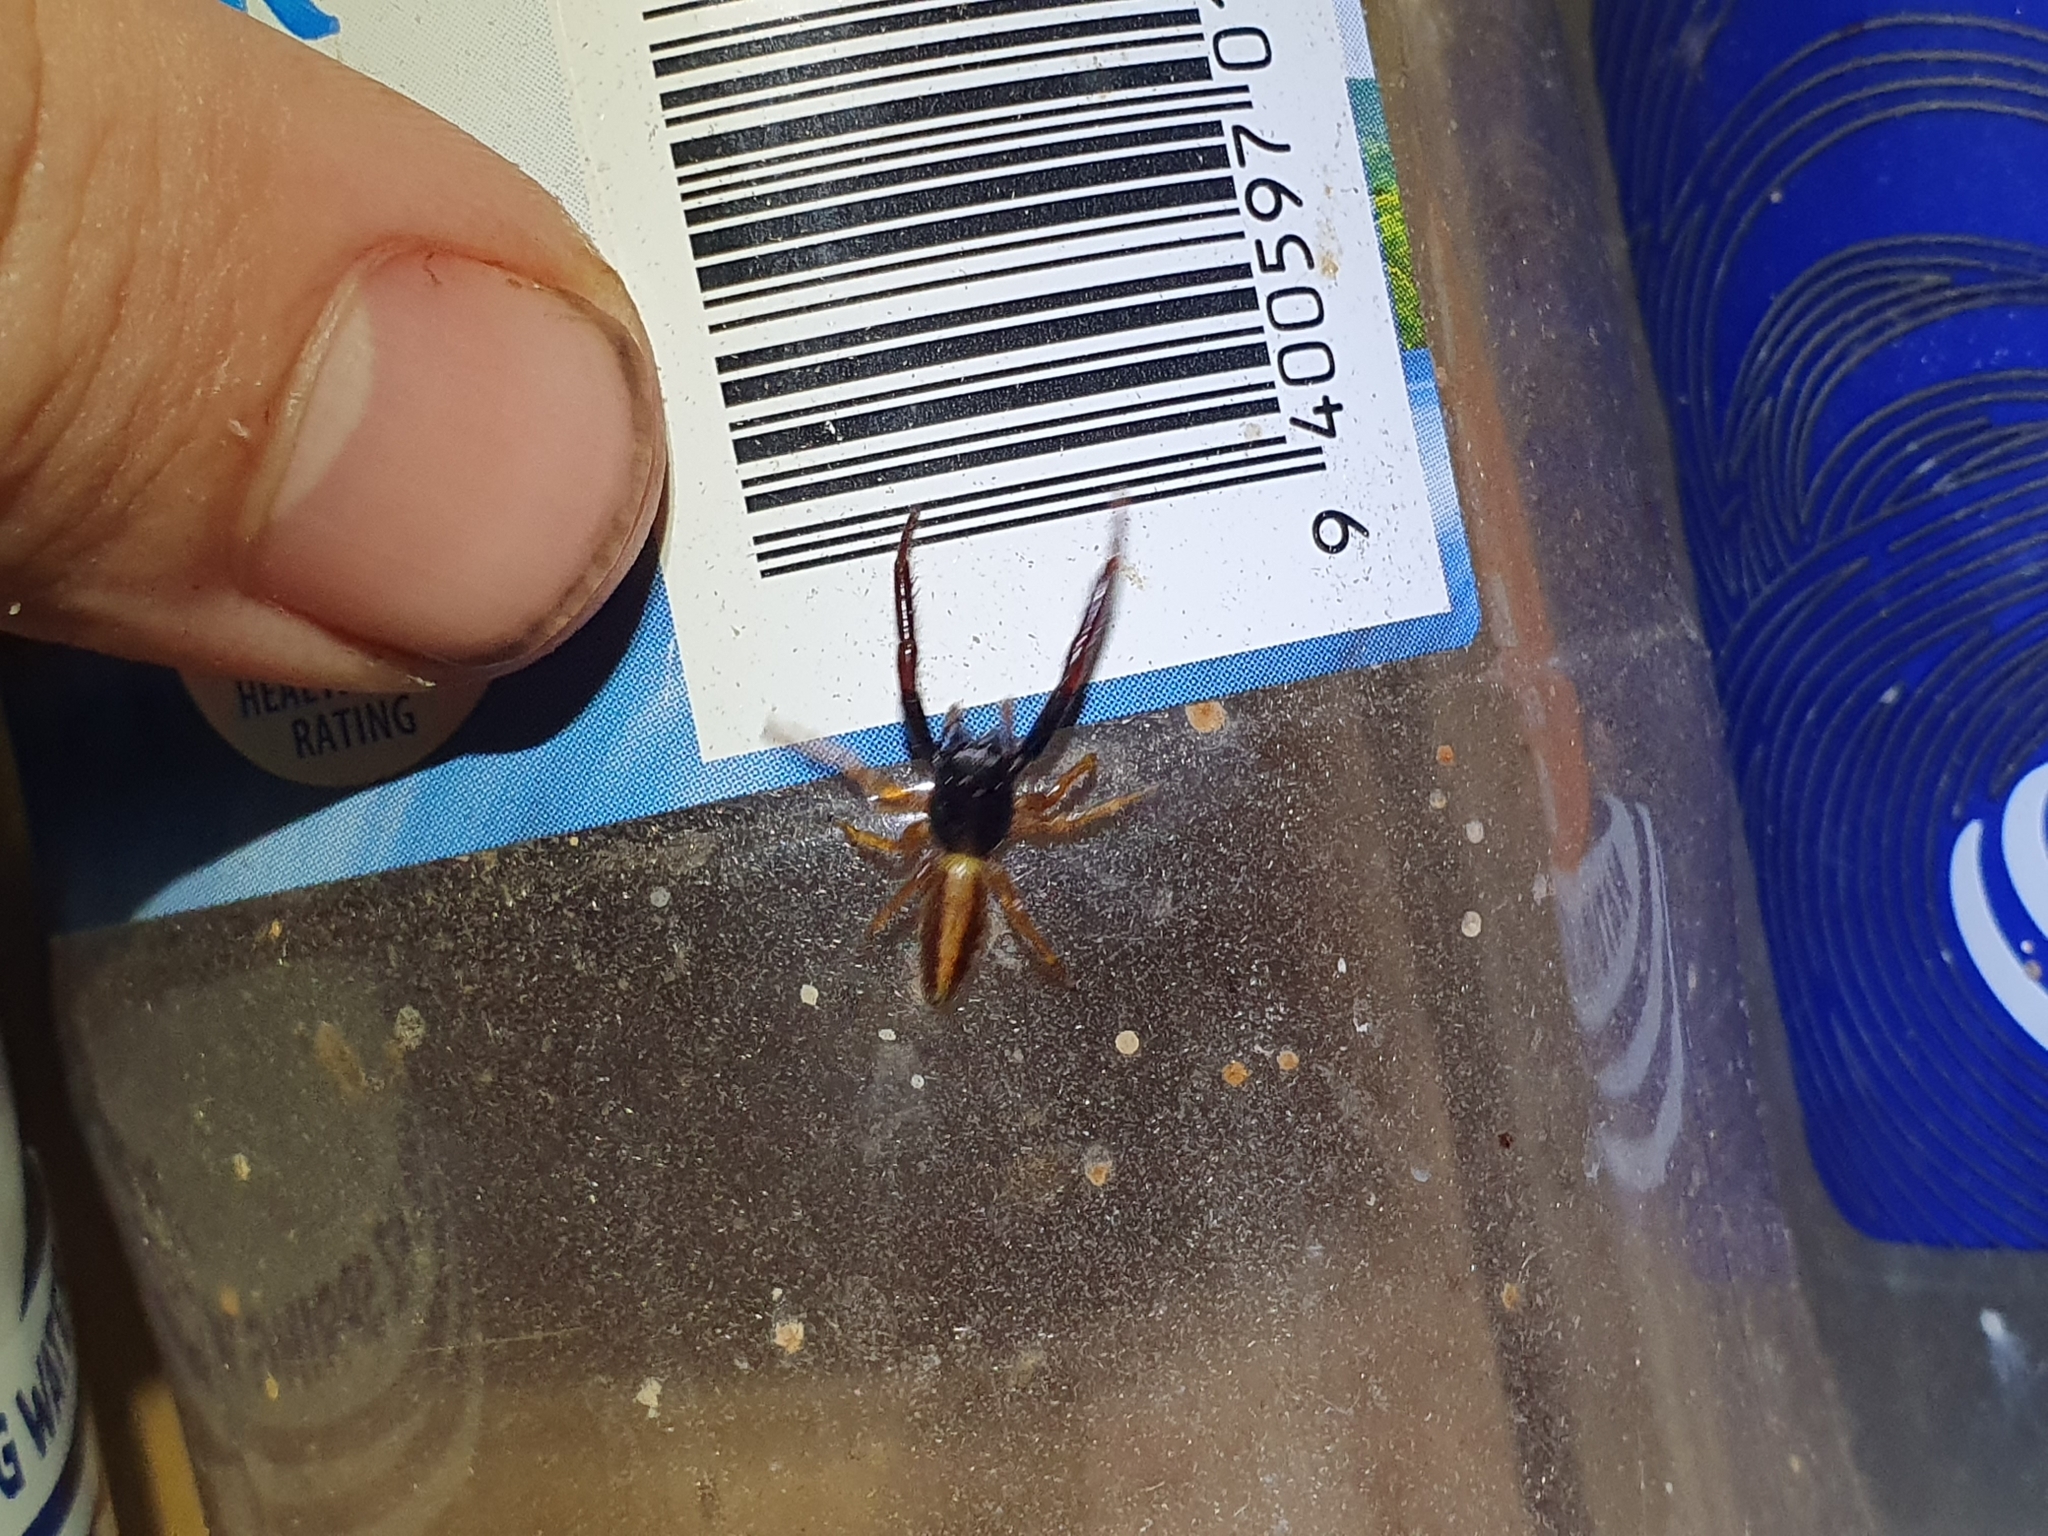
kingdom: Animalia
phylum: Arthropoda
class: Arachnida
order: Araneae
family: Salticidae
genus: Trite
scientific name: Trite planiceps
